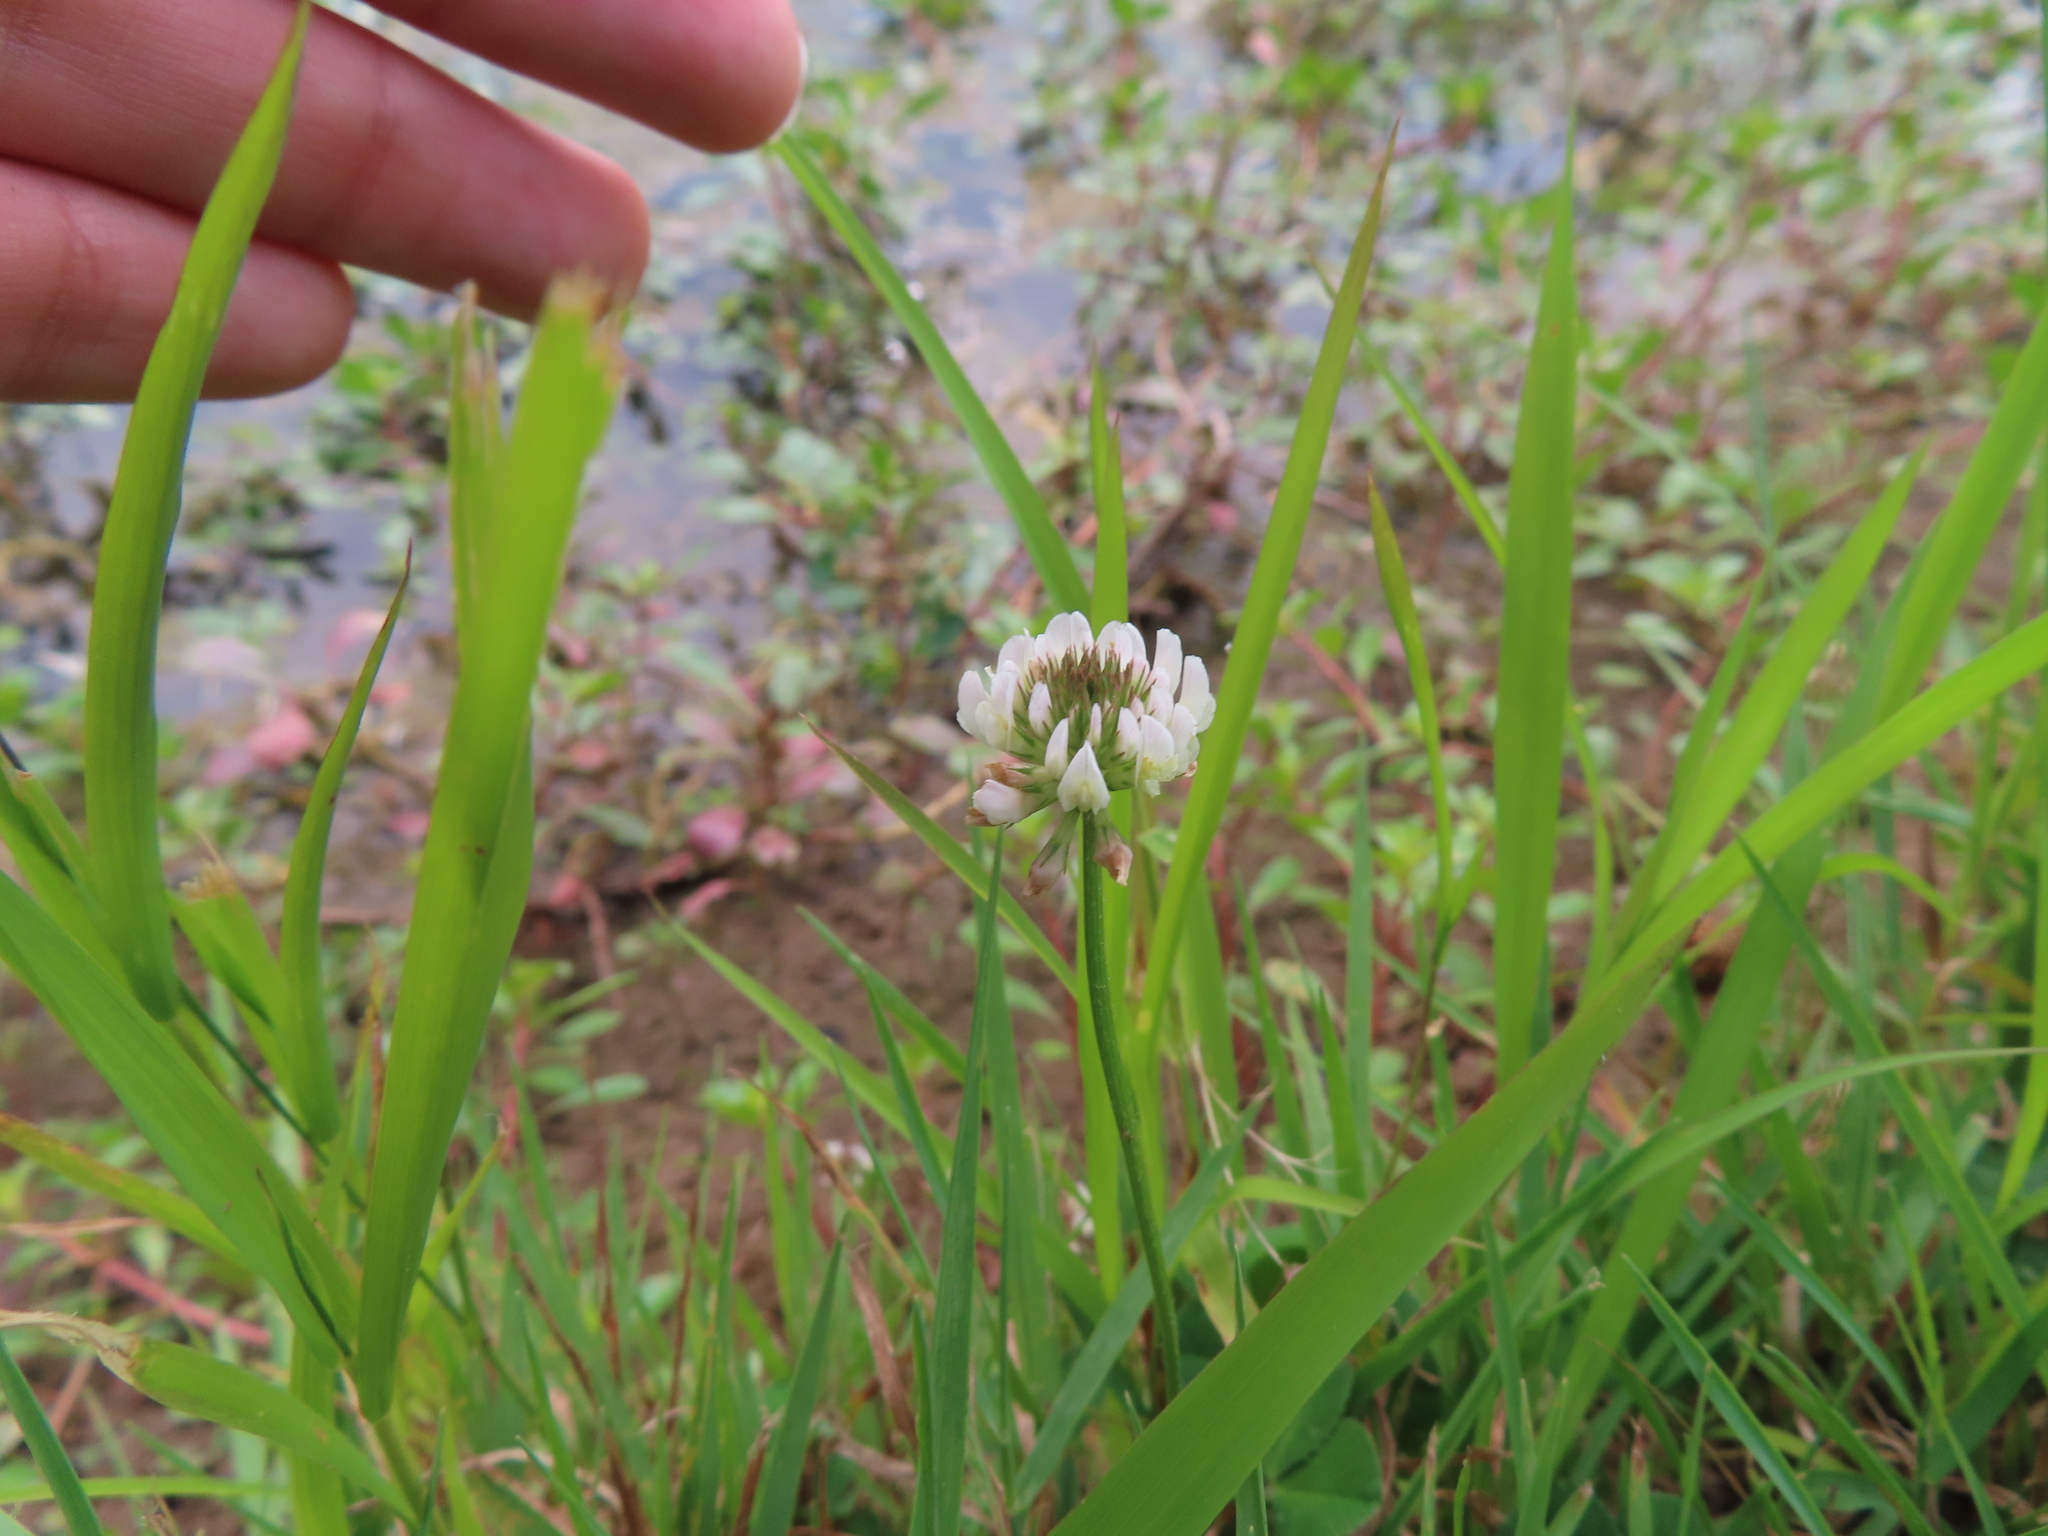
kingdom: Plantae
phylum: Tracheophyta
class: Magnoliopsida
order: Fabales
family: Fabaceae
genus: Trifolium
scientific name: Trifolium repens
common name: White clover
